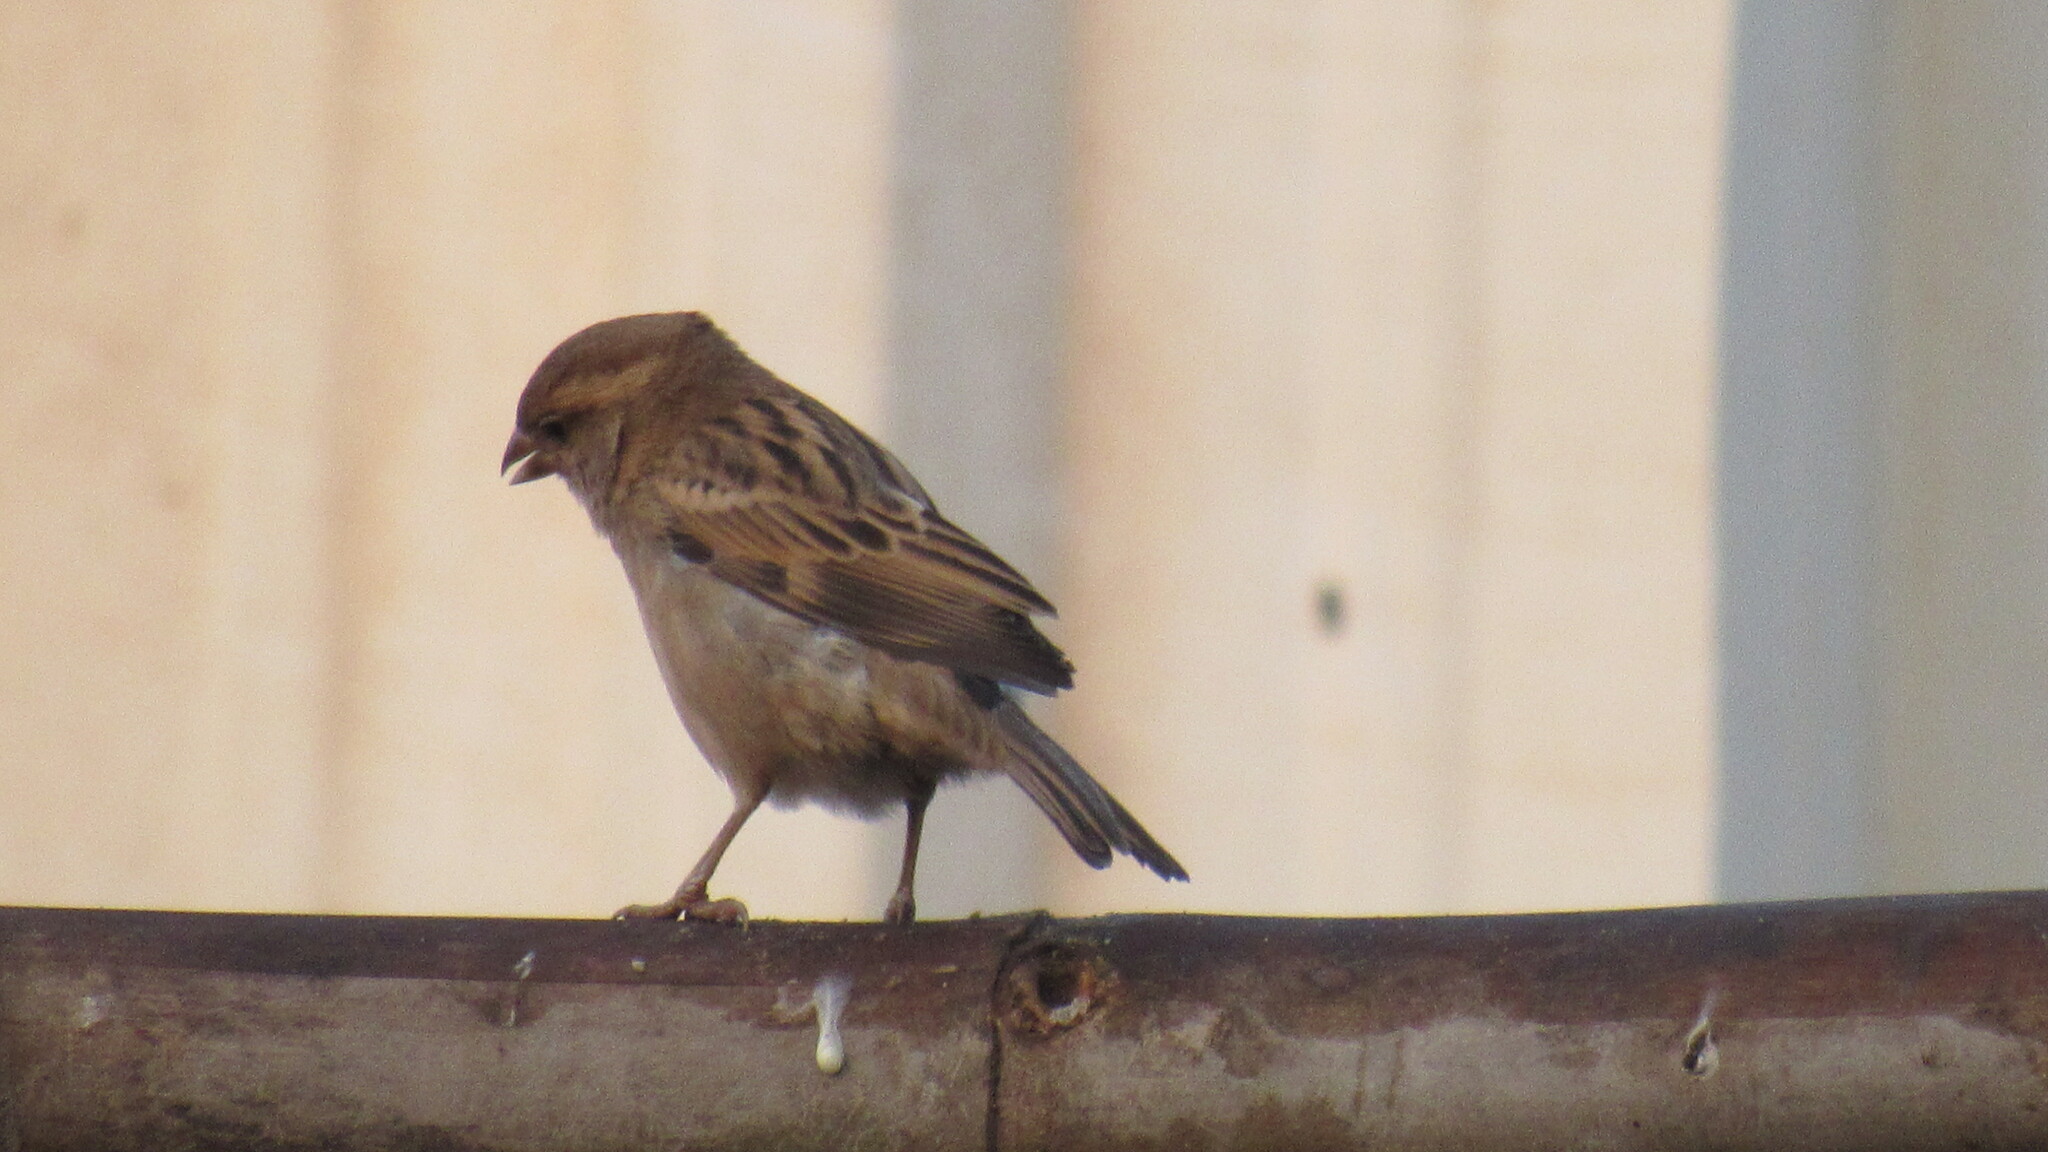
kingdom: Animalia
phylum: Chordata
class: Aves
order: Passeriformes
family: Passeridae
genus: Passer
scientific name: Passer domesticus
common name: House sparrow
